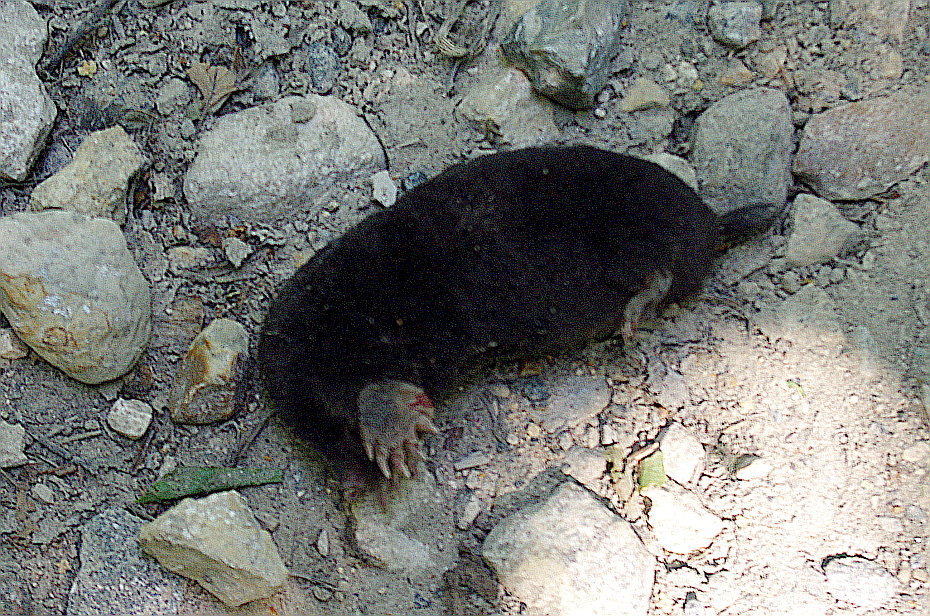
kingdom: Animalia
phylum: Chordata
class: Mammalia
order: Soricomorpha
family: Talpidae
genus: Talpa
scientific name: Talpa europaea
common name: European mole
